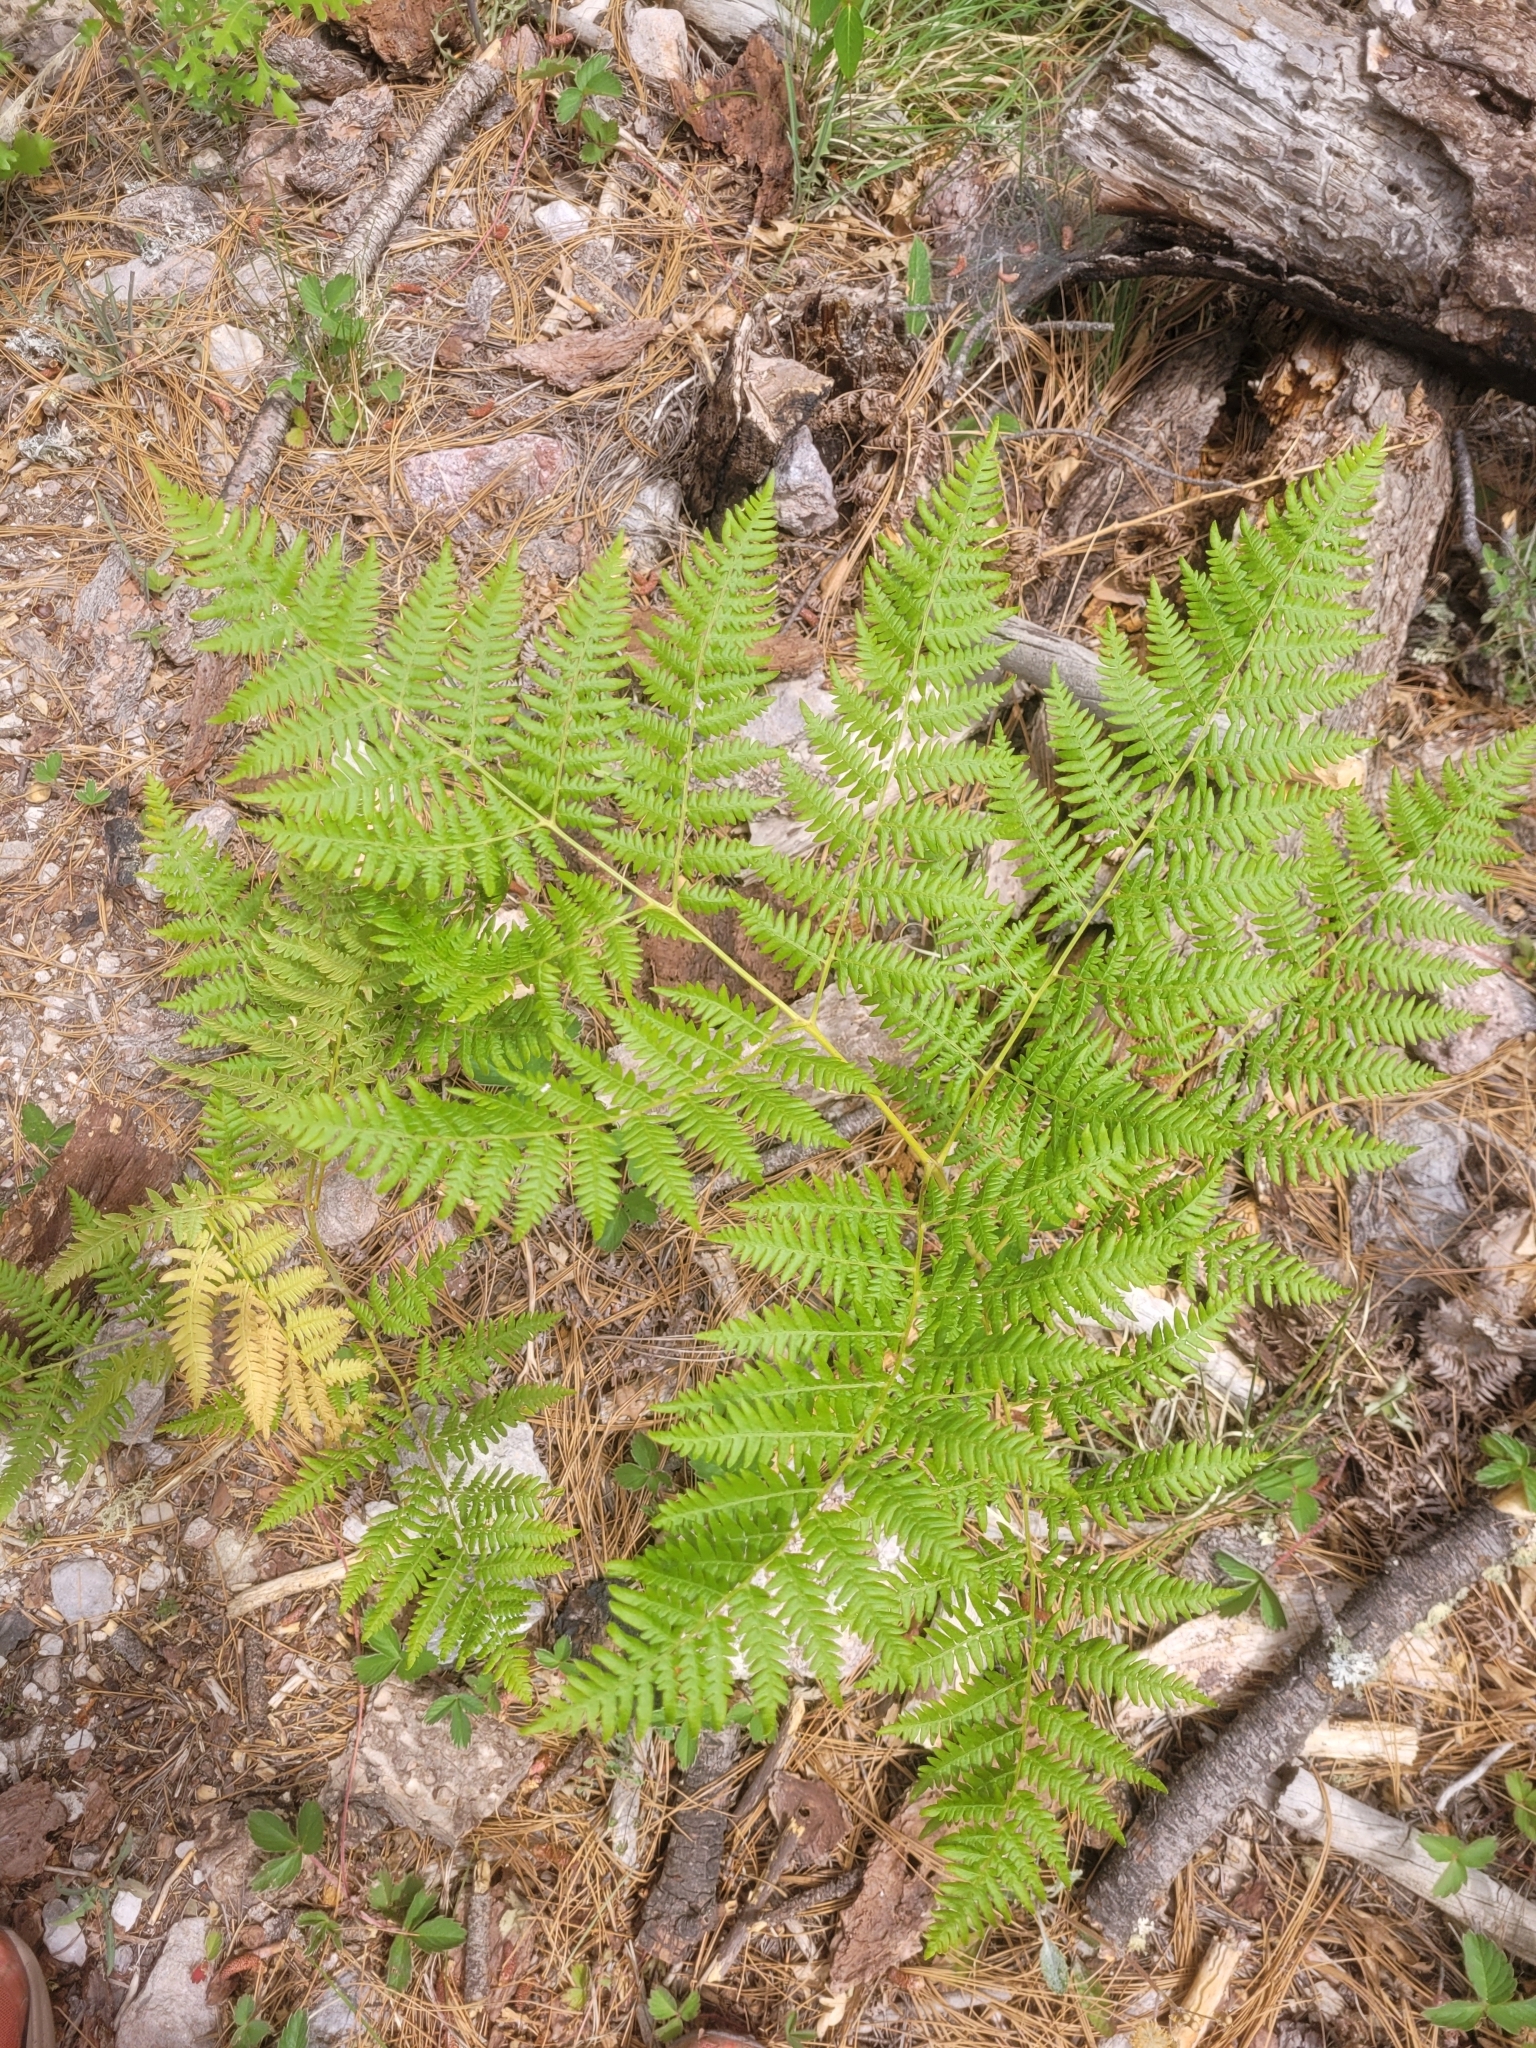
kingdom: Plantae
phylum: Tracheophyta
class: Polypodiopsida
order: Polypodiales
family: Dennstaedtiaceae
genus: Pteridium
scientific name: Pteridium aquilinum
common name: Bracken
